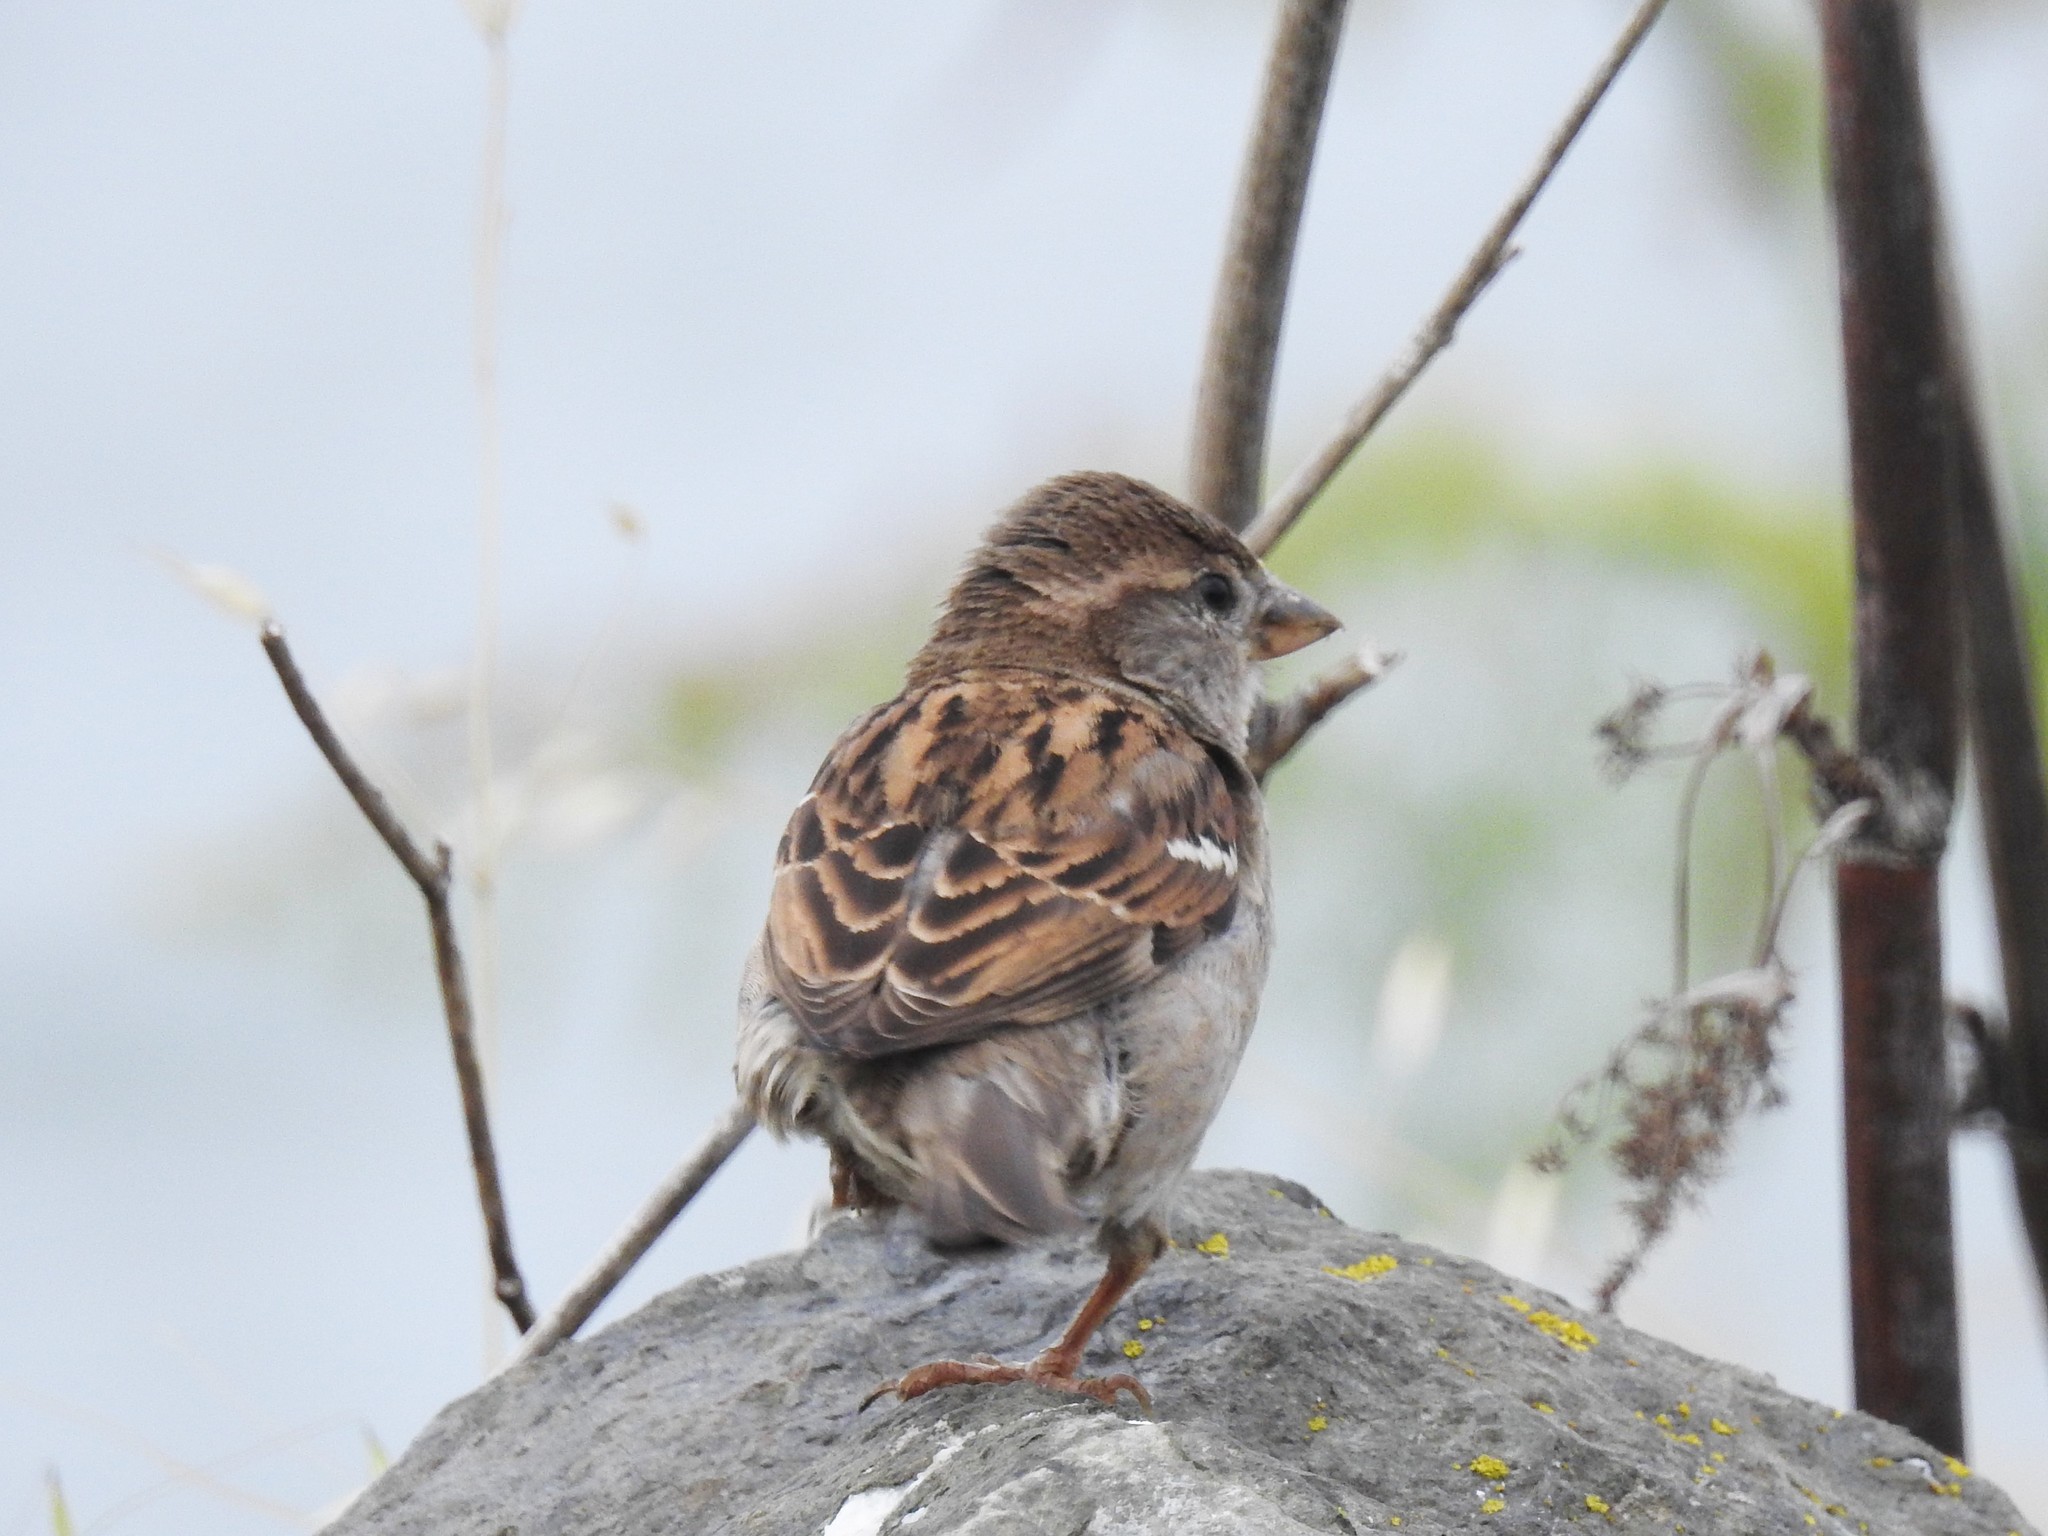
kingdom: Animalia
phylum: Chordata
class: Aves
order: Passeriformes
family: Passeridae
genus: Passer
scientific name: Passer domesticus
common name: House sparrow
